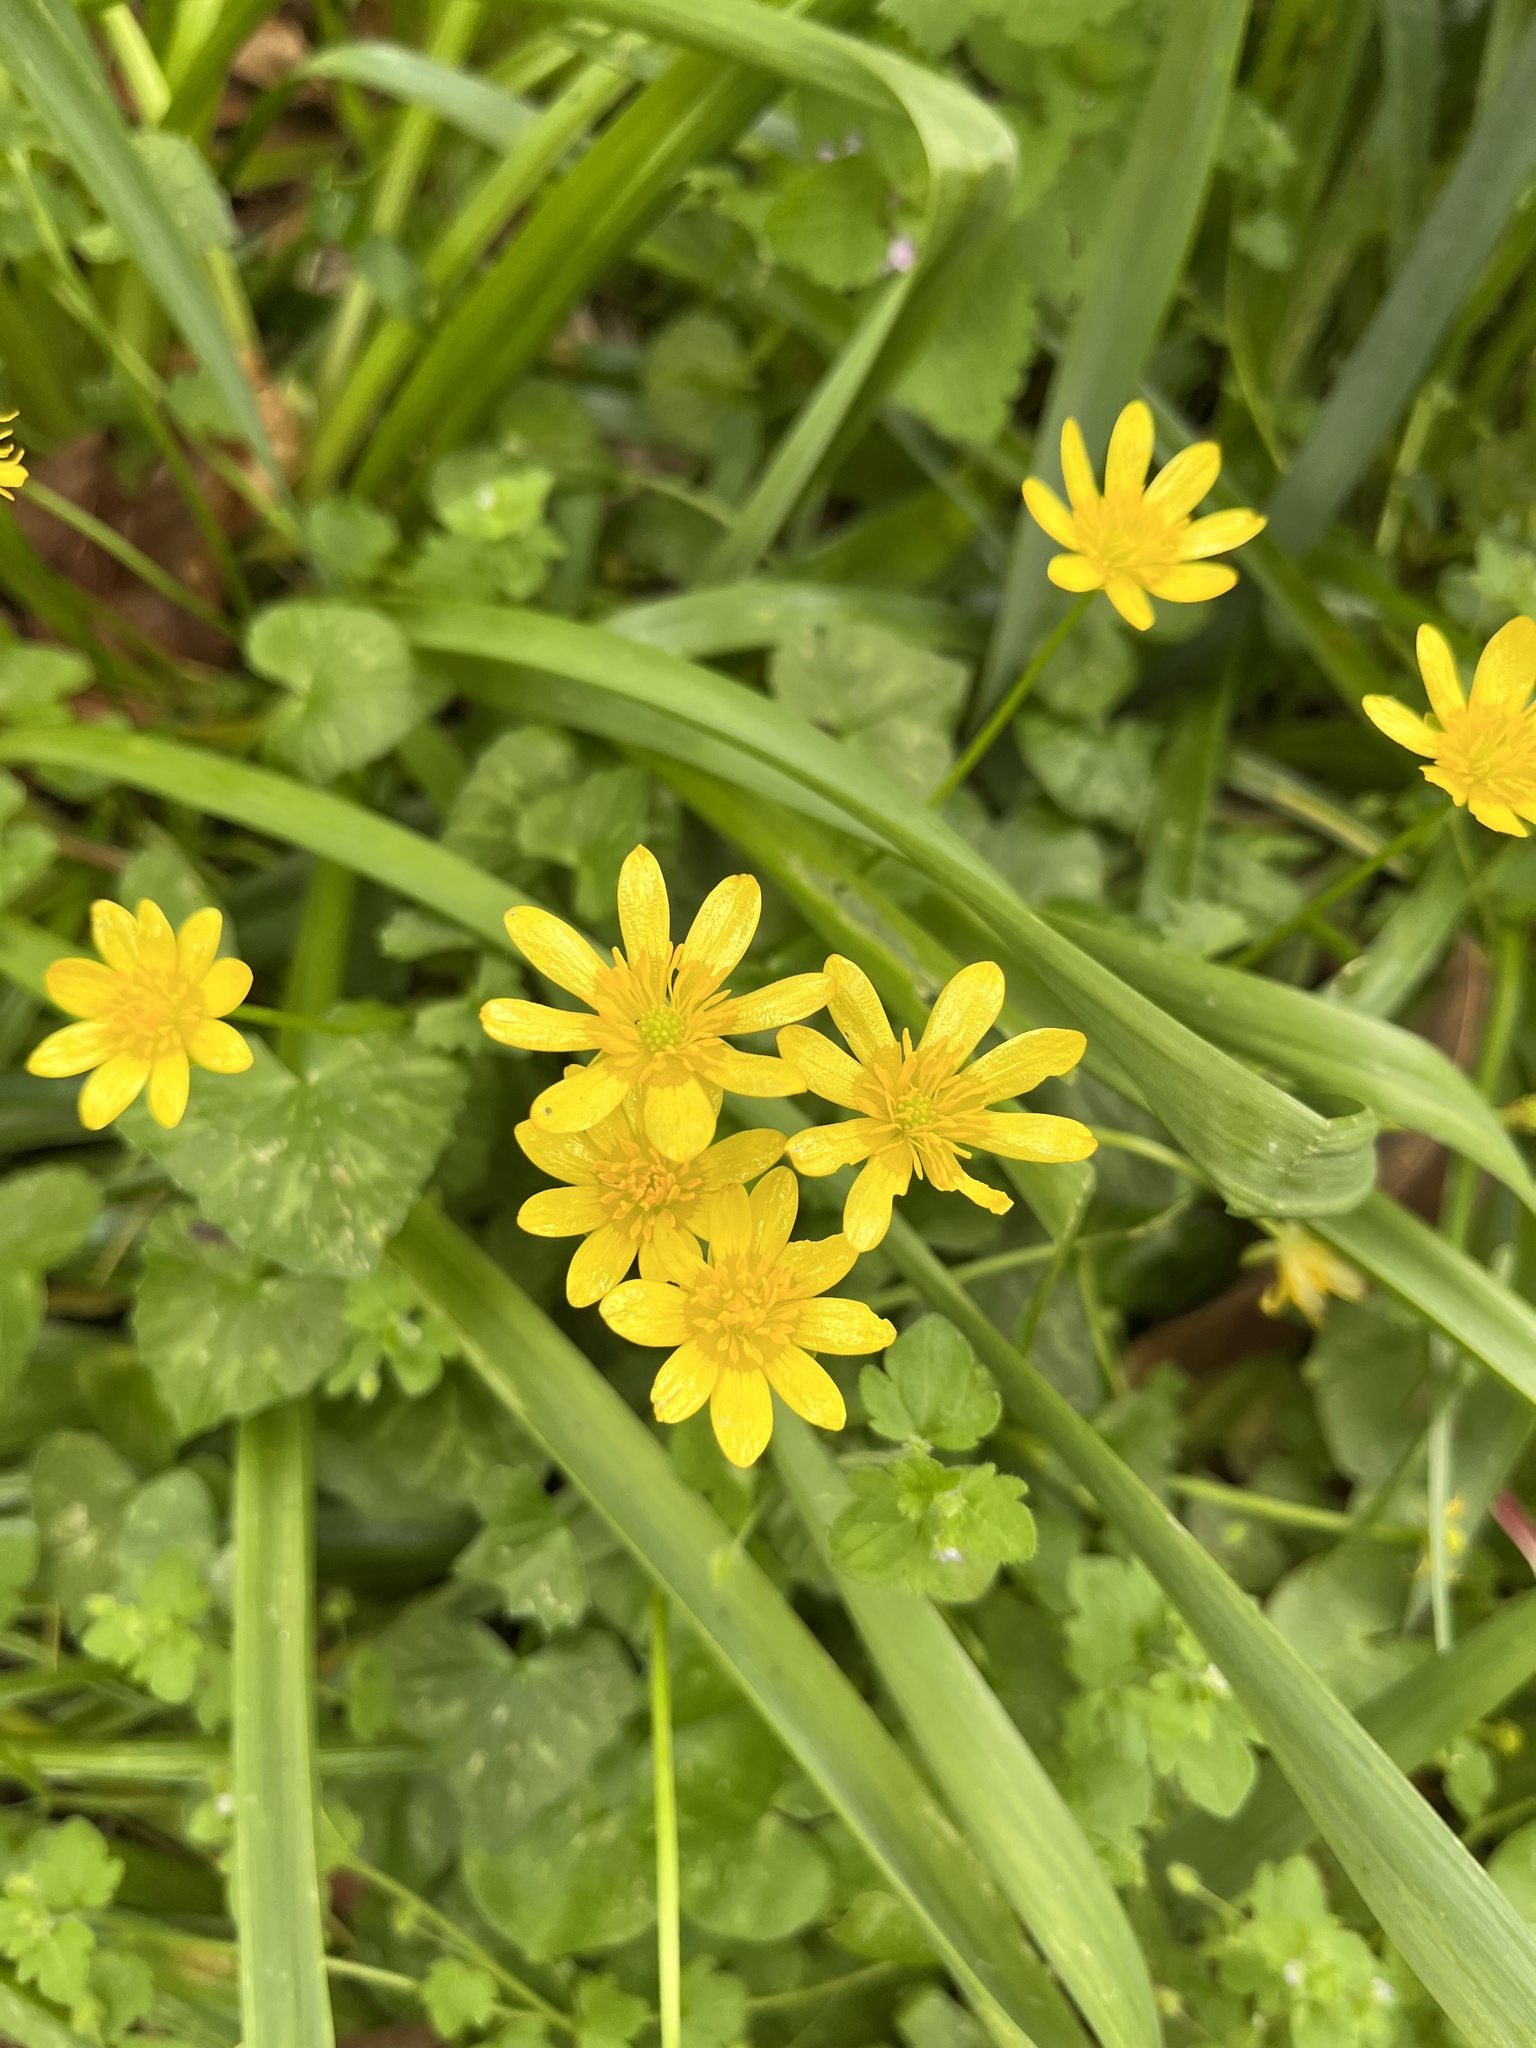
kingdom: Plantae
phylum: Tracheophyta
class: Magnoliopsida
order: Ranunculales
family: Ranunculaceae
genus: Ficaria
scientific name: Ficaria verna
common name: Lesser celandine
